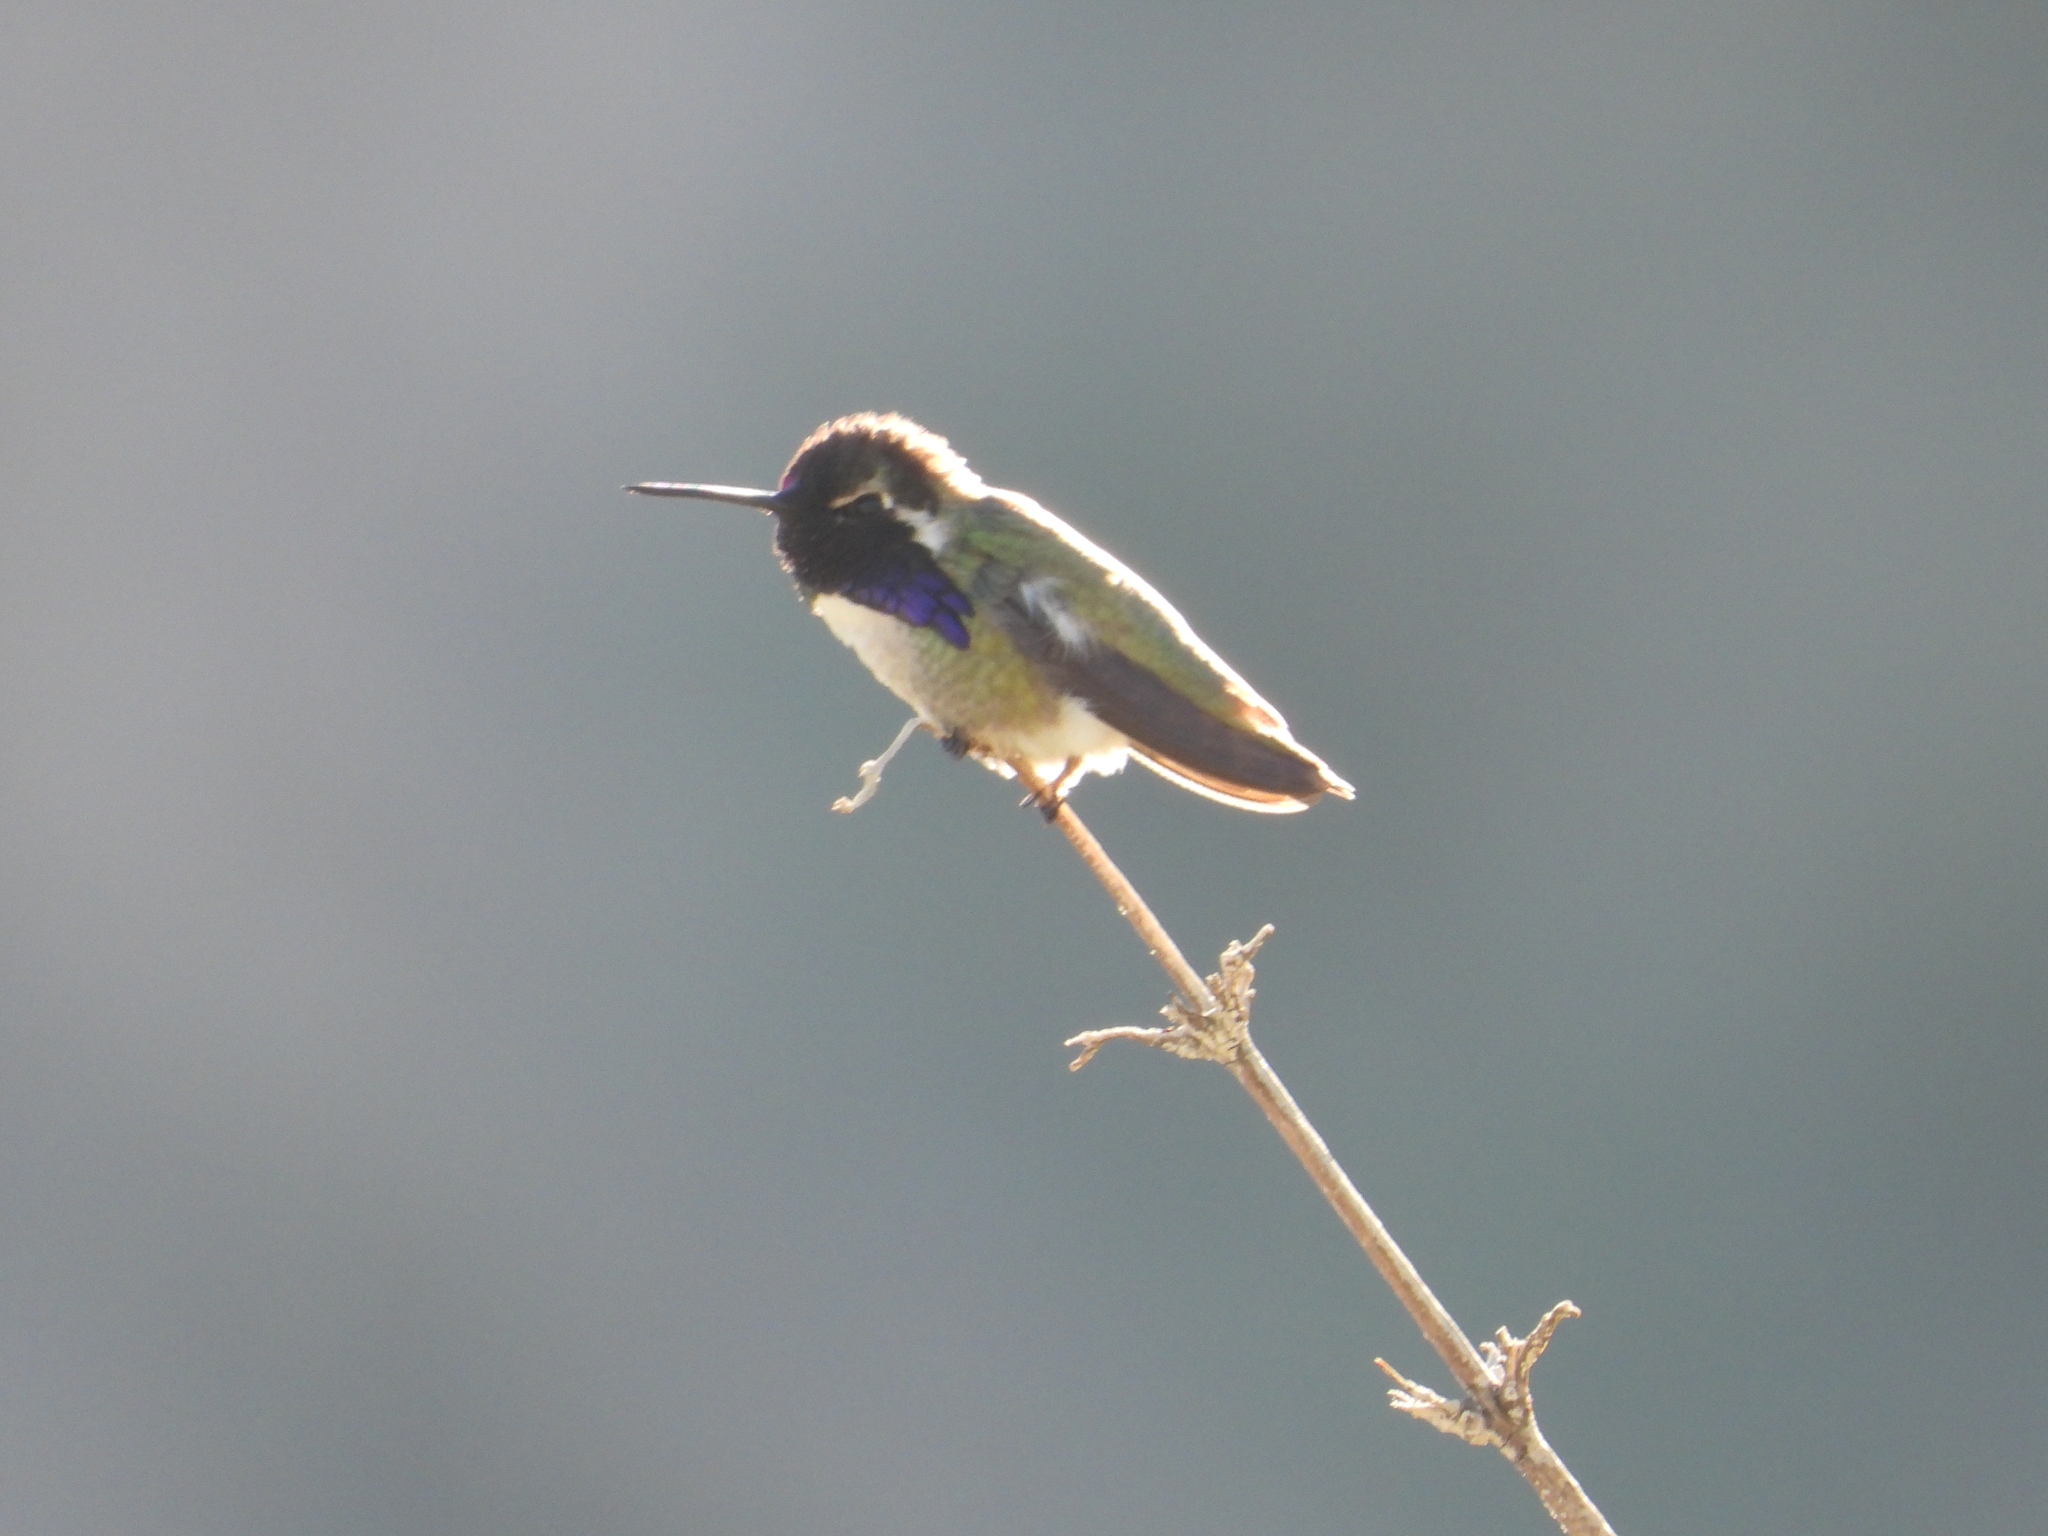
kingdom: Animalia
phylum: Chordata
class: Aves
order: Apodiformes
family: Trochilidae
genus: Calypte
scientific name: Calypte costae
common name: Costa's hummingbird
